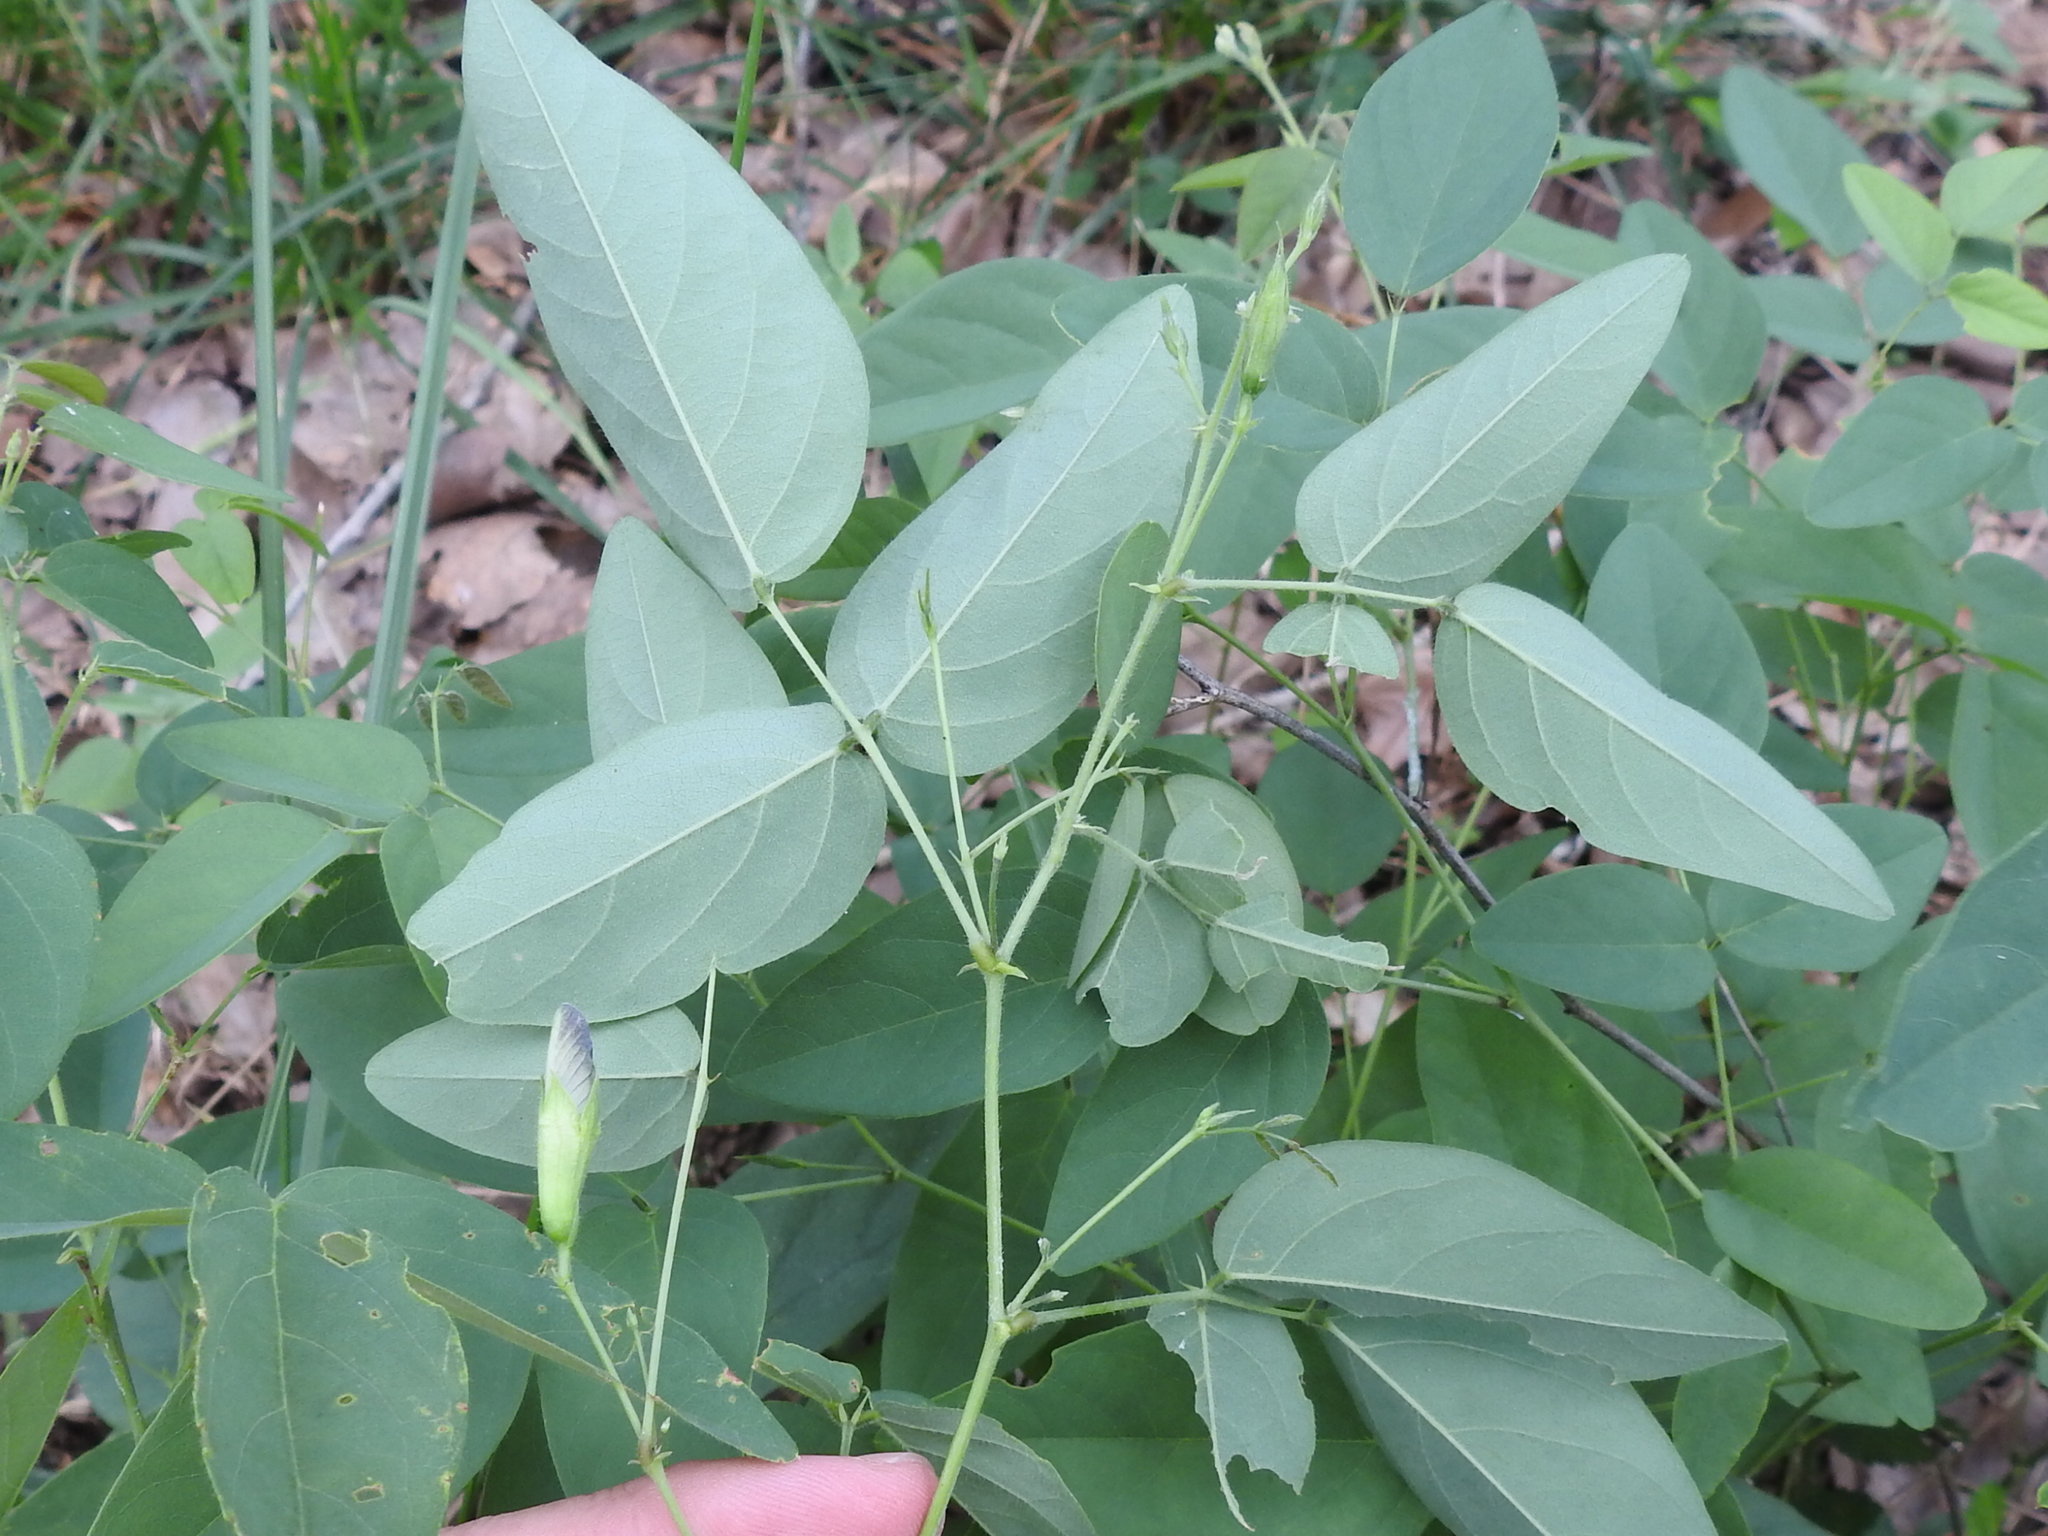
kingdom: Plantae
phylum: Tracheophyta
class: Magnoliopsida
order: Fabales
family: Fabaceae
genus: Clitoria
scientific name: Clitoria mariana
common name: Butterfly-pea
